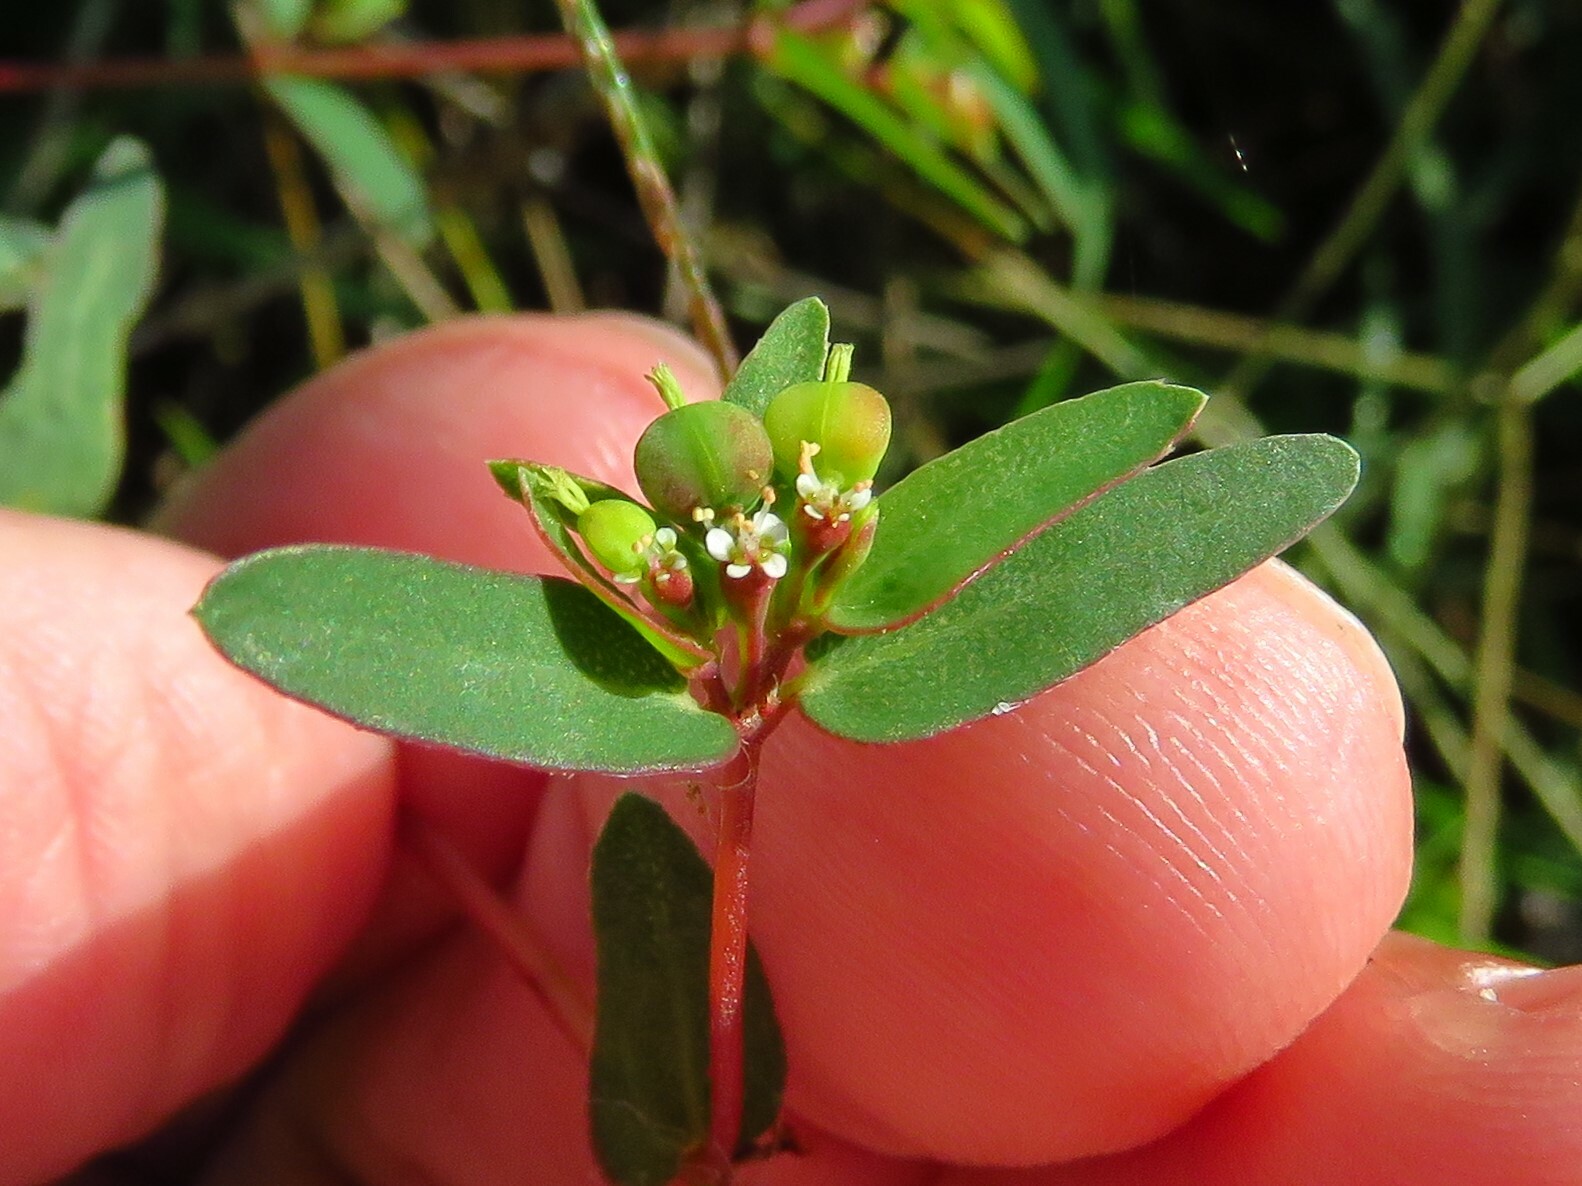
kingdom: Plantae
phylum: Tracheophyta
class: Magnoliopsida
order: Malpighiales
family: Euphorbiaceae
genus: Euphorbia
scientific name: Euphorbia nutans
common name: Eyebane
